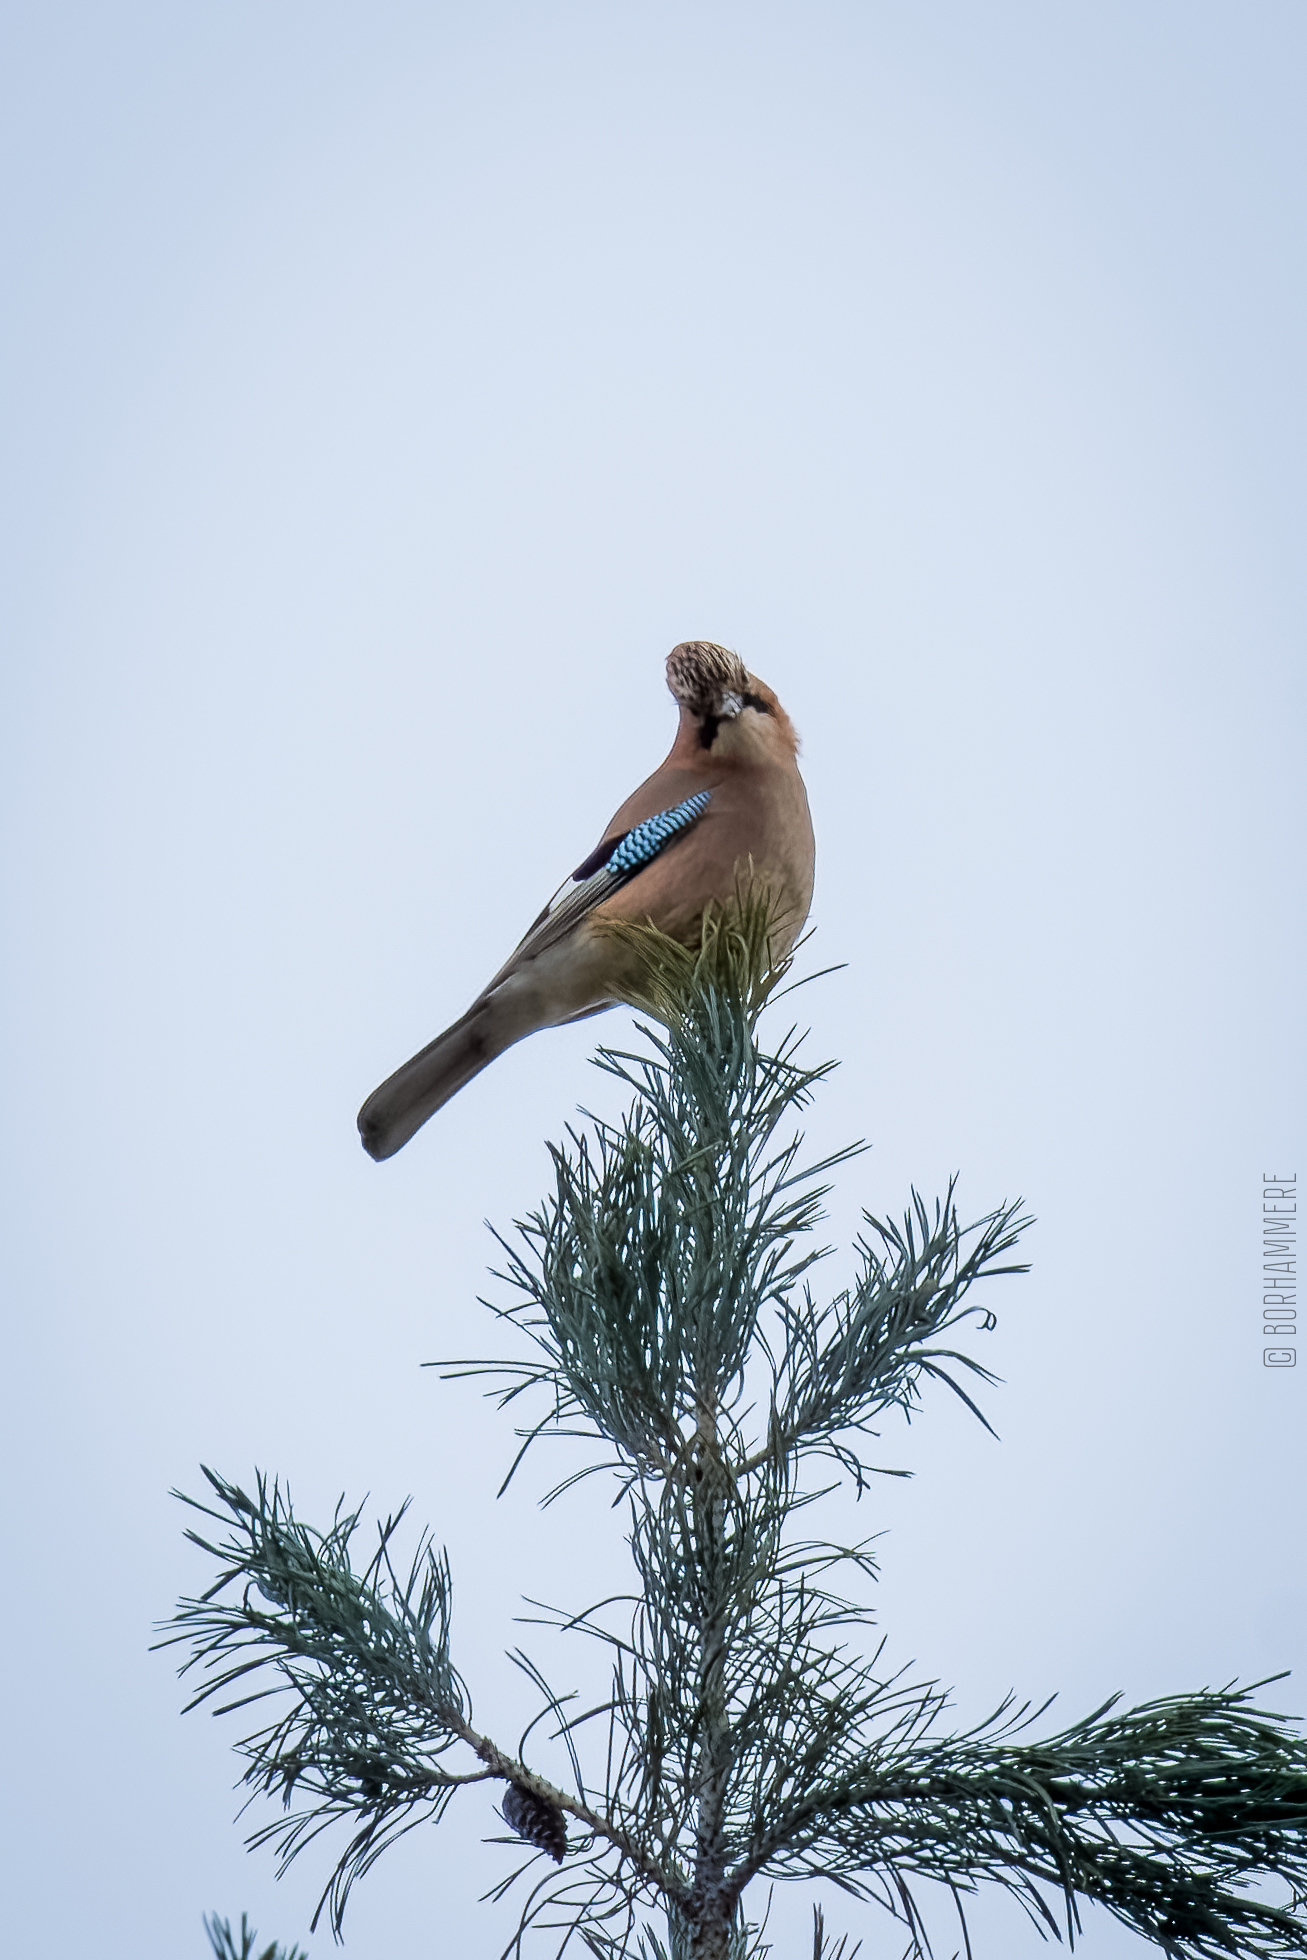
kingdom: Animalia
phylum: Chordata
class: Aves
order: Passeriformes
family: Corvidae
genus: Garrulus
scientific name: Garrulus glandarius
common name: Eurasian jay
